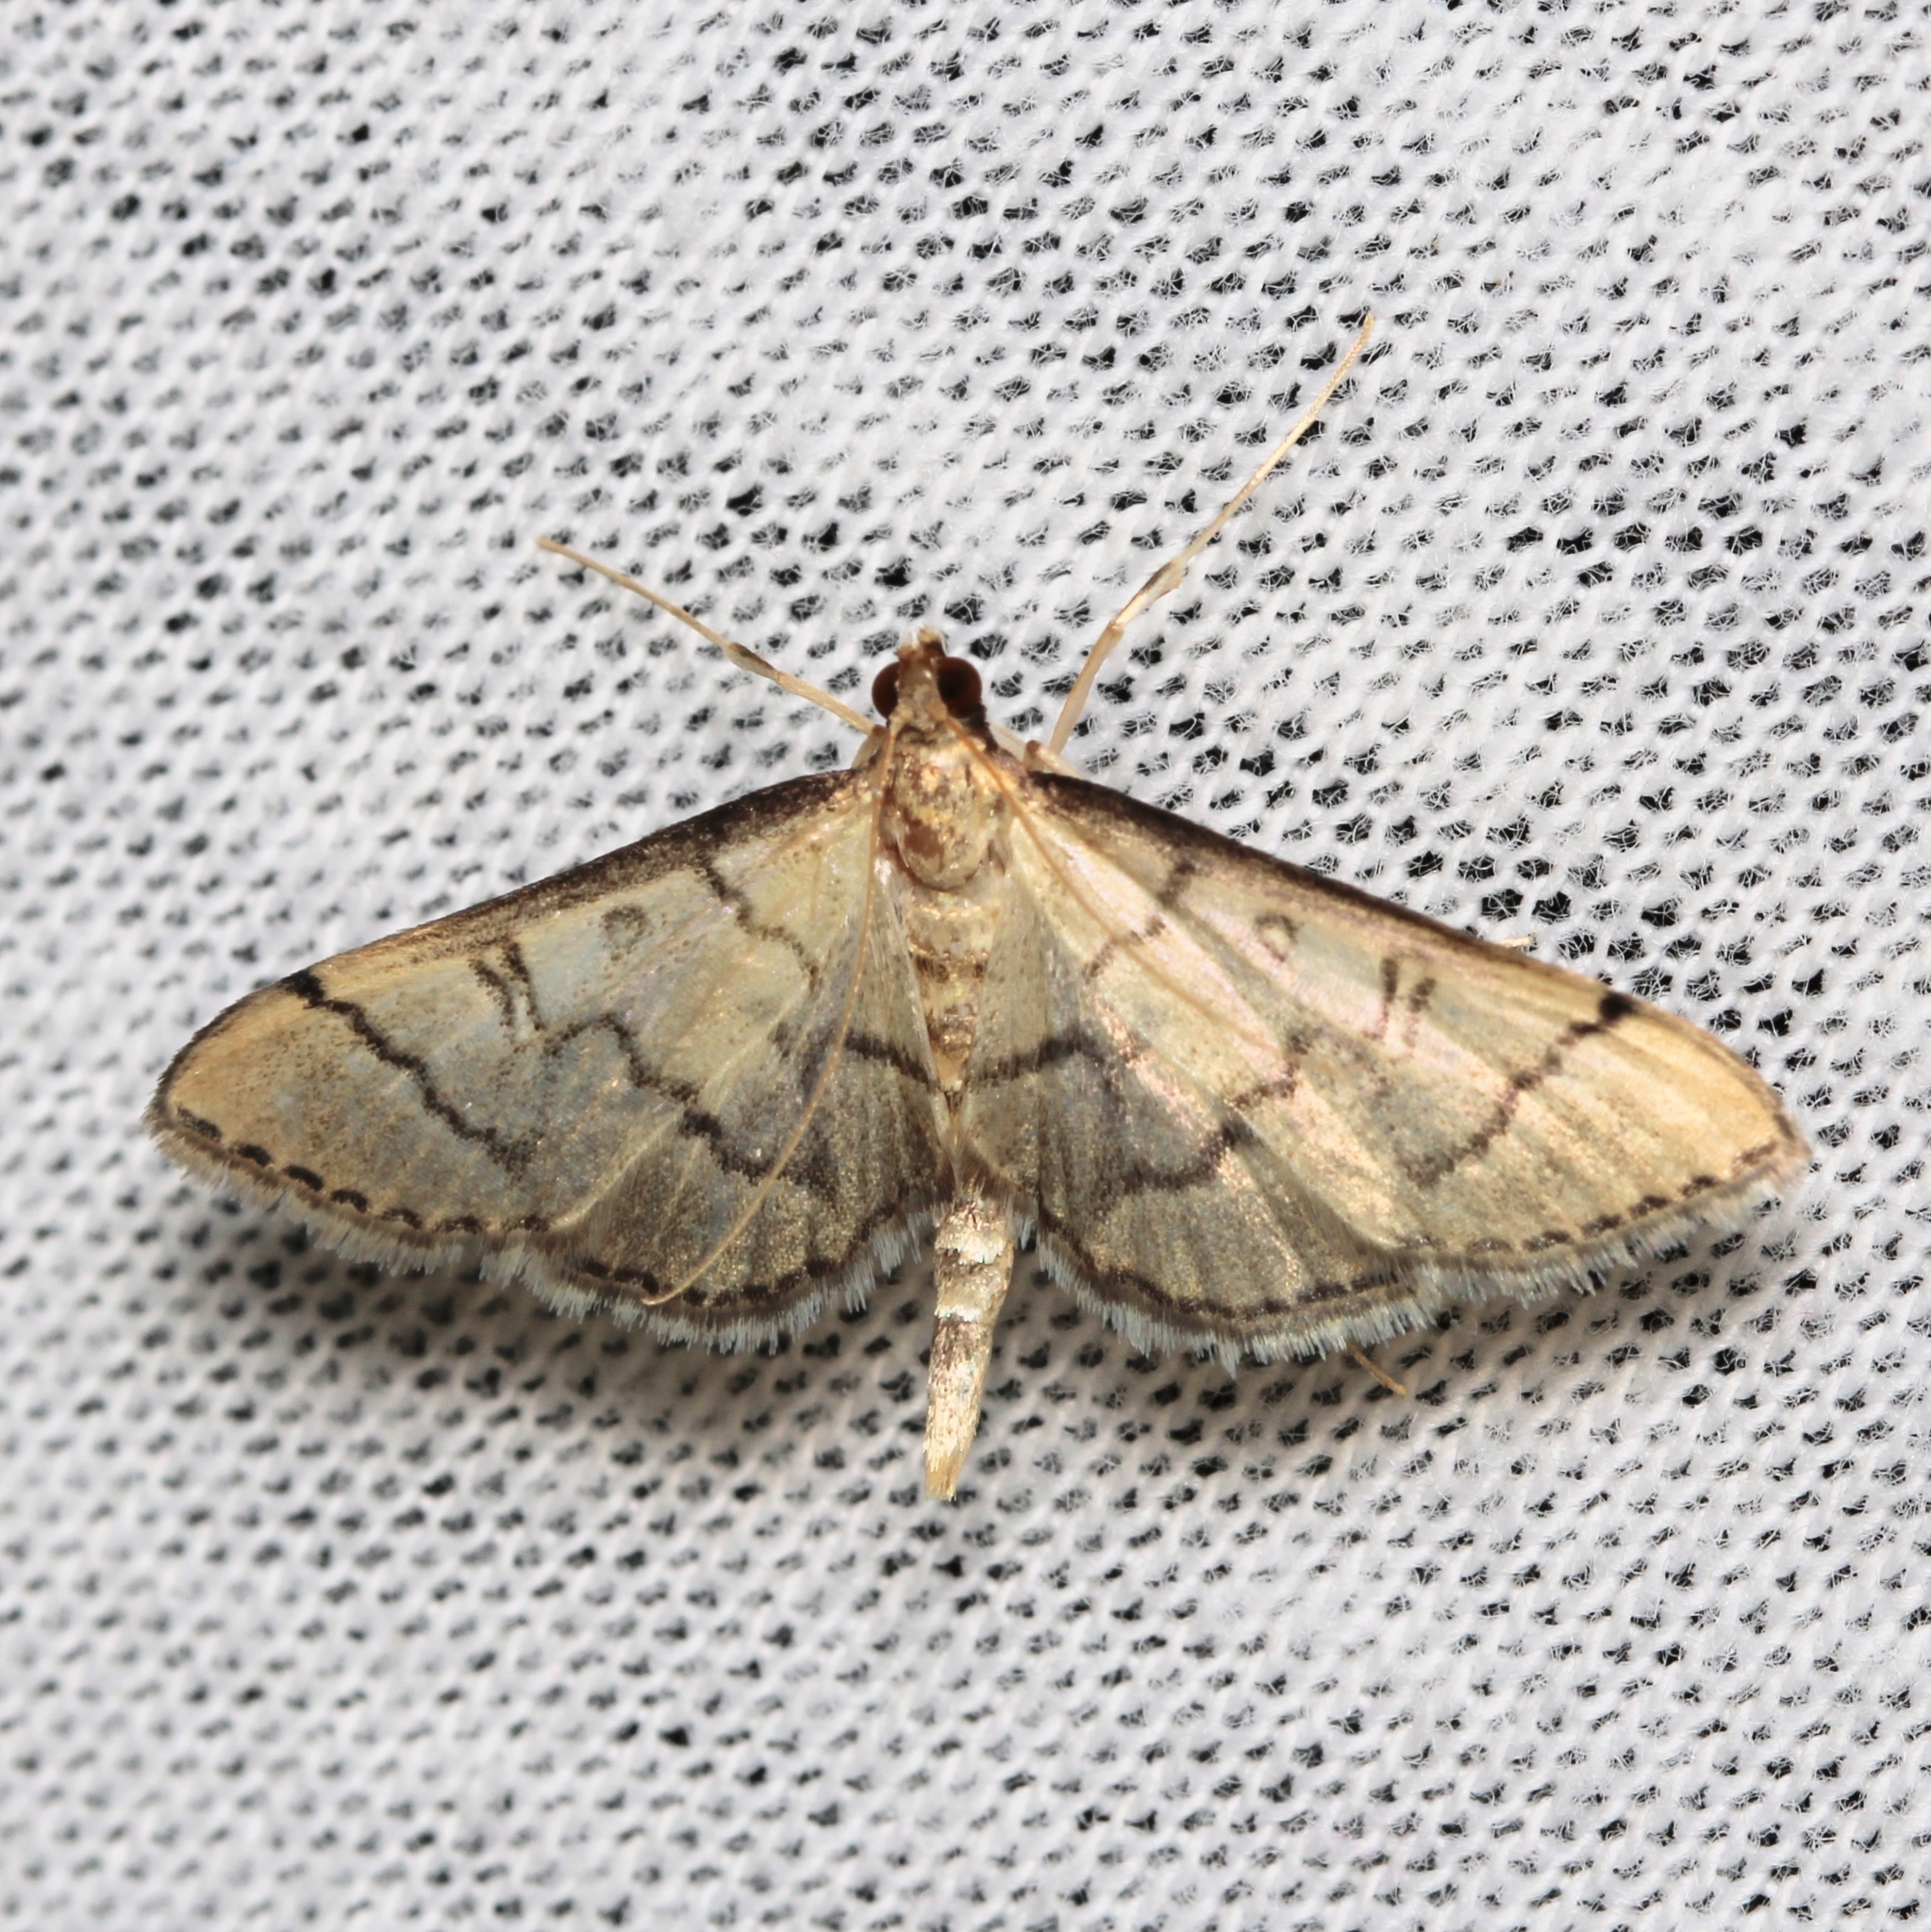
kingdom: Animalia
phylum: Arthropoda
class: Insecta
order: Lepidoptera
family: Crambidae
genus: Lamprosema
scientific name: Lamprosema Blepharomastix ranalis
